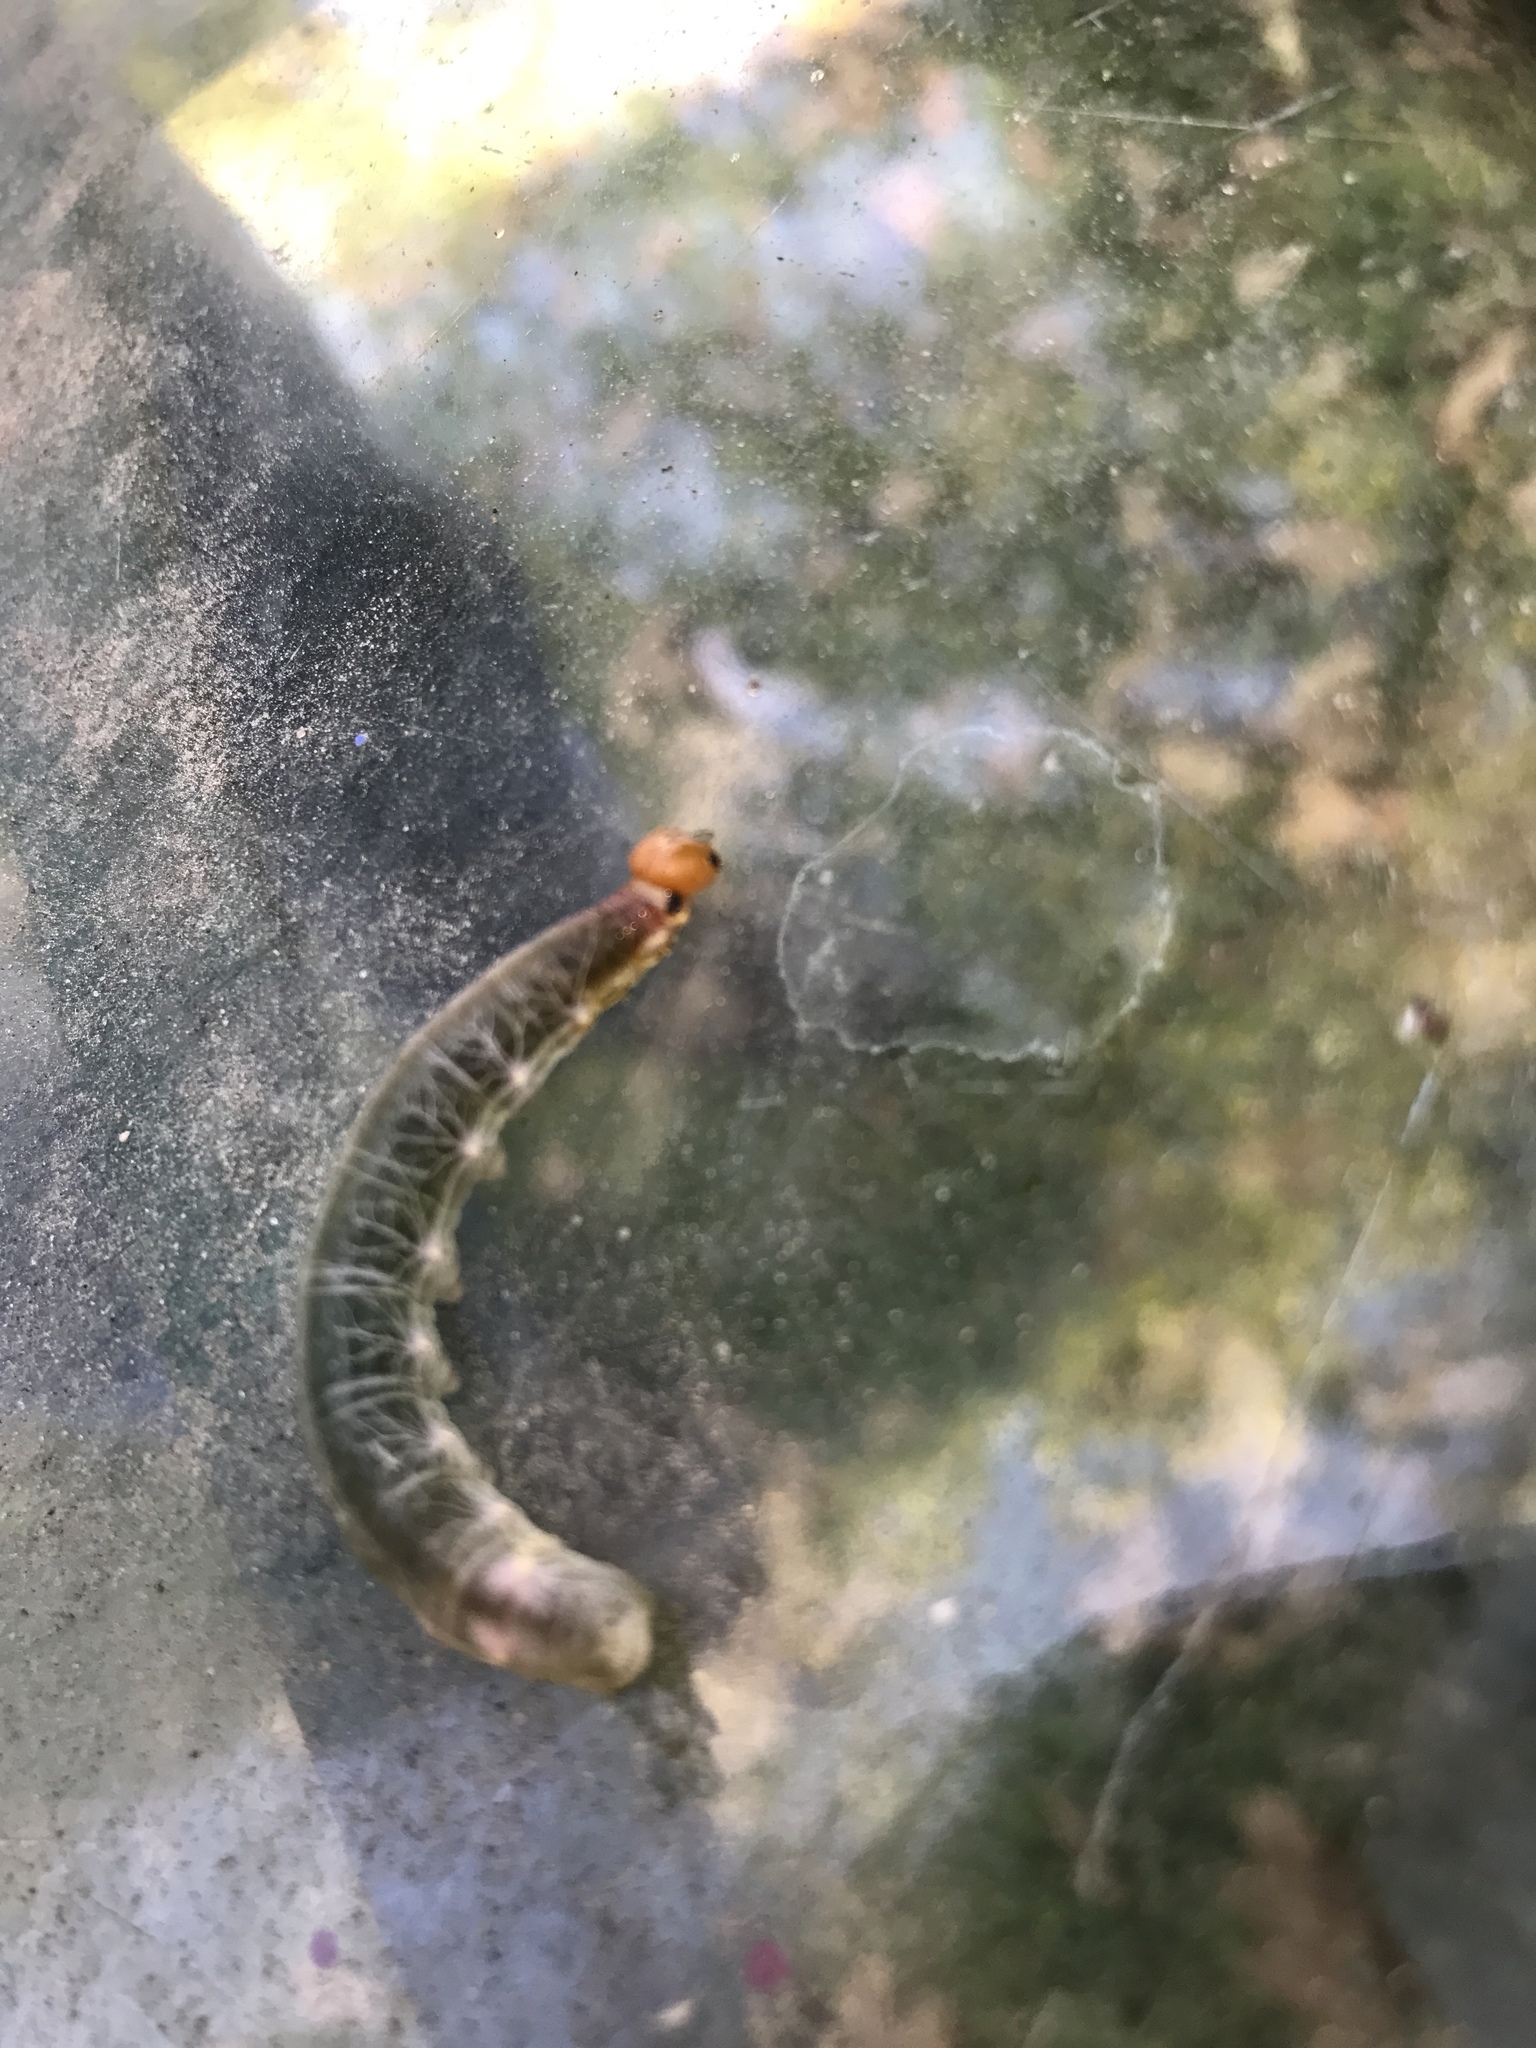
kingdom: Animalia
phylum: Arthropoda
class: Insecta
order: Lepidoptera
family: Hesperiidae
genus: Calpodes
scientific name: Calpodes ethlius
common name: Brazilian skipper
